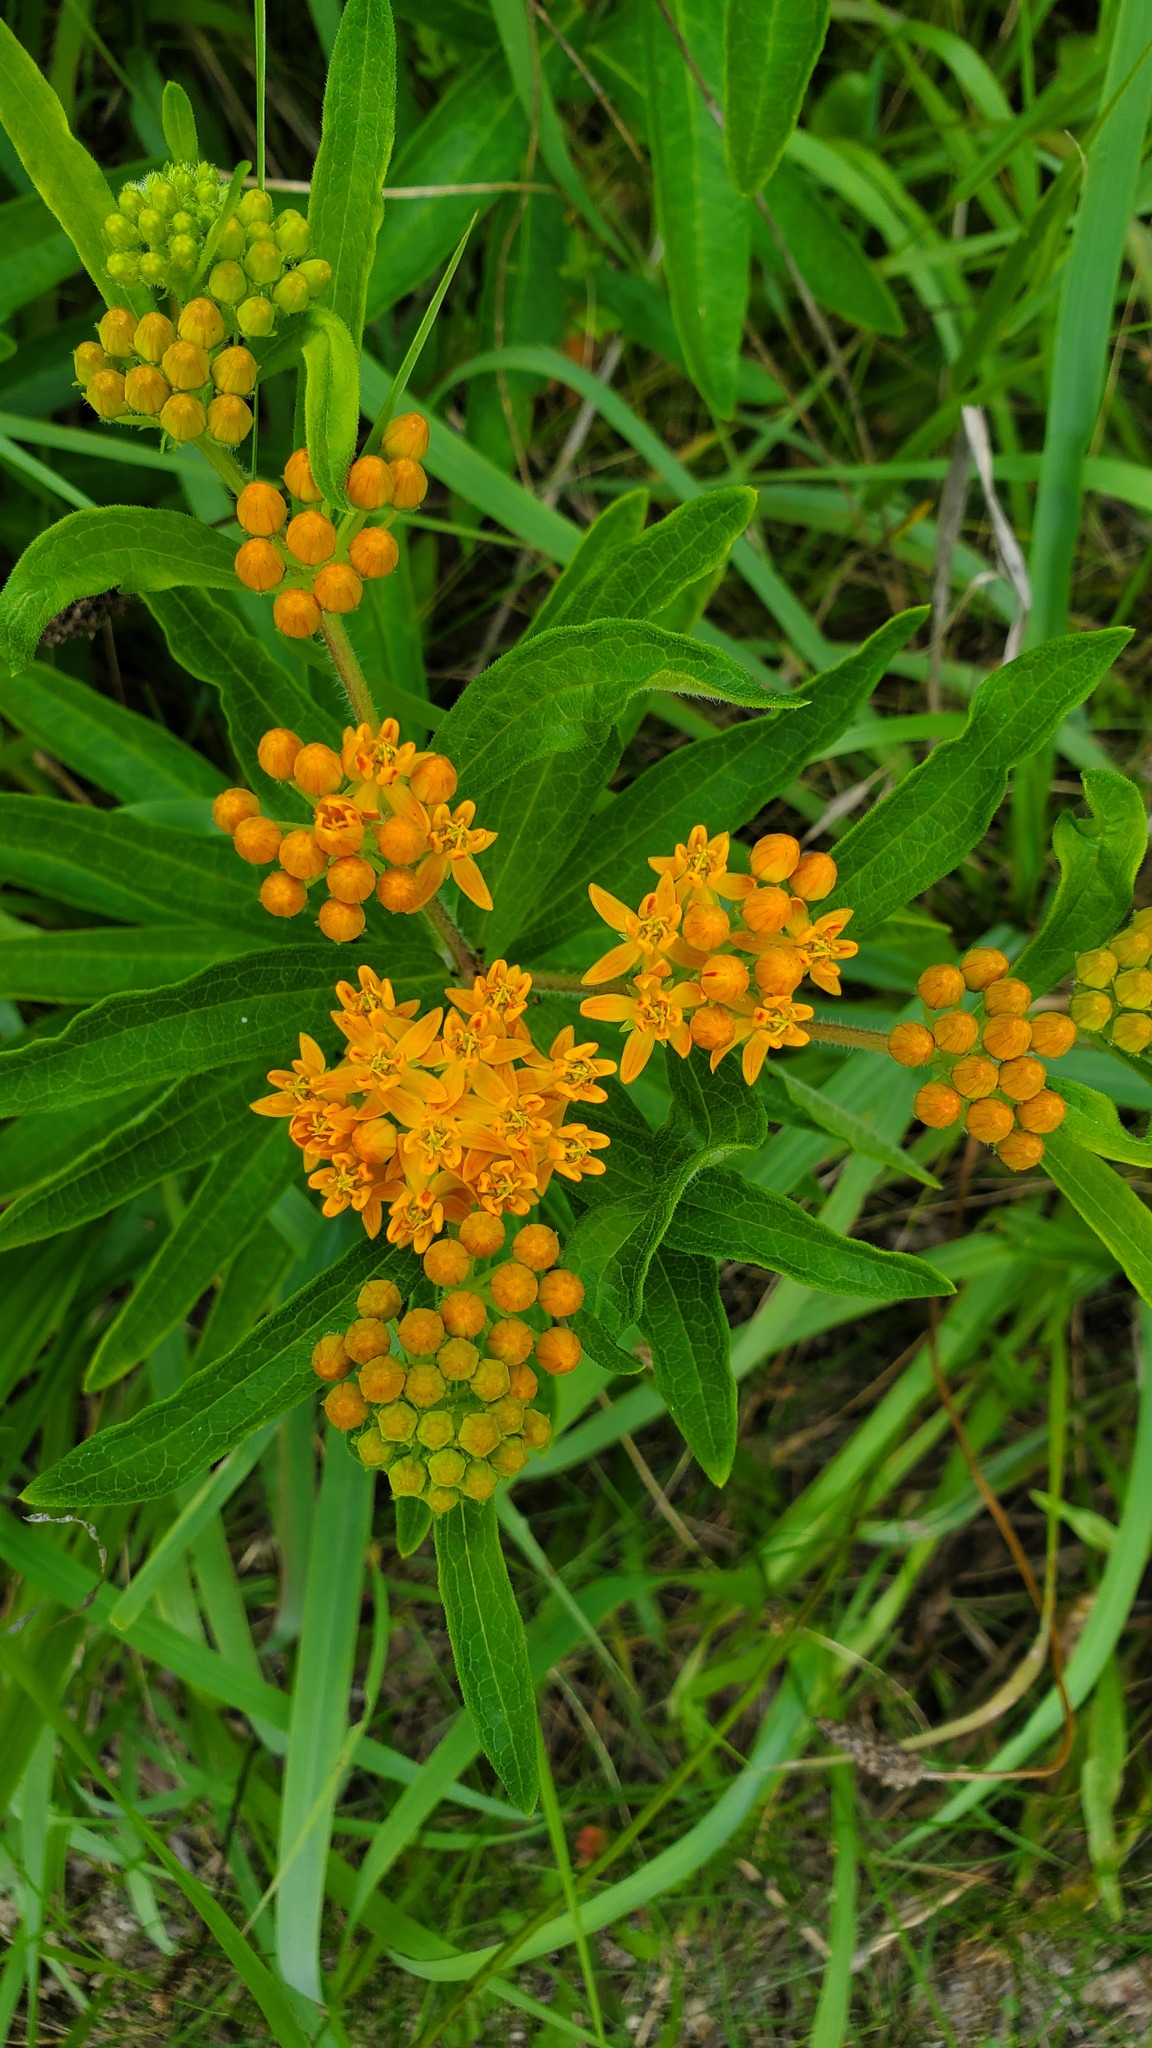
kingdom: Plantae
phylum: Tracheophyta
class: Magnoliopsida
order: Gentianales
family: Apocynaceae
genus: Asclepias
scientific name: Asclepias tuberosa
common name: Butterfly milkweed
